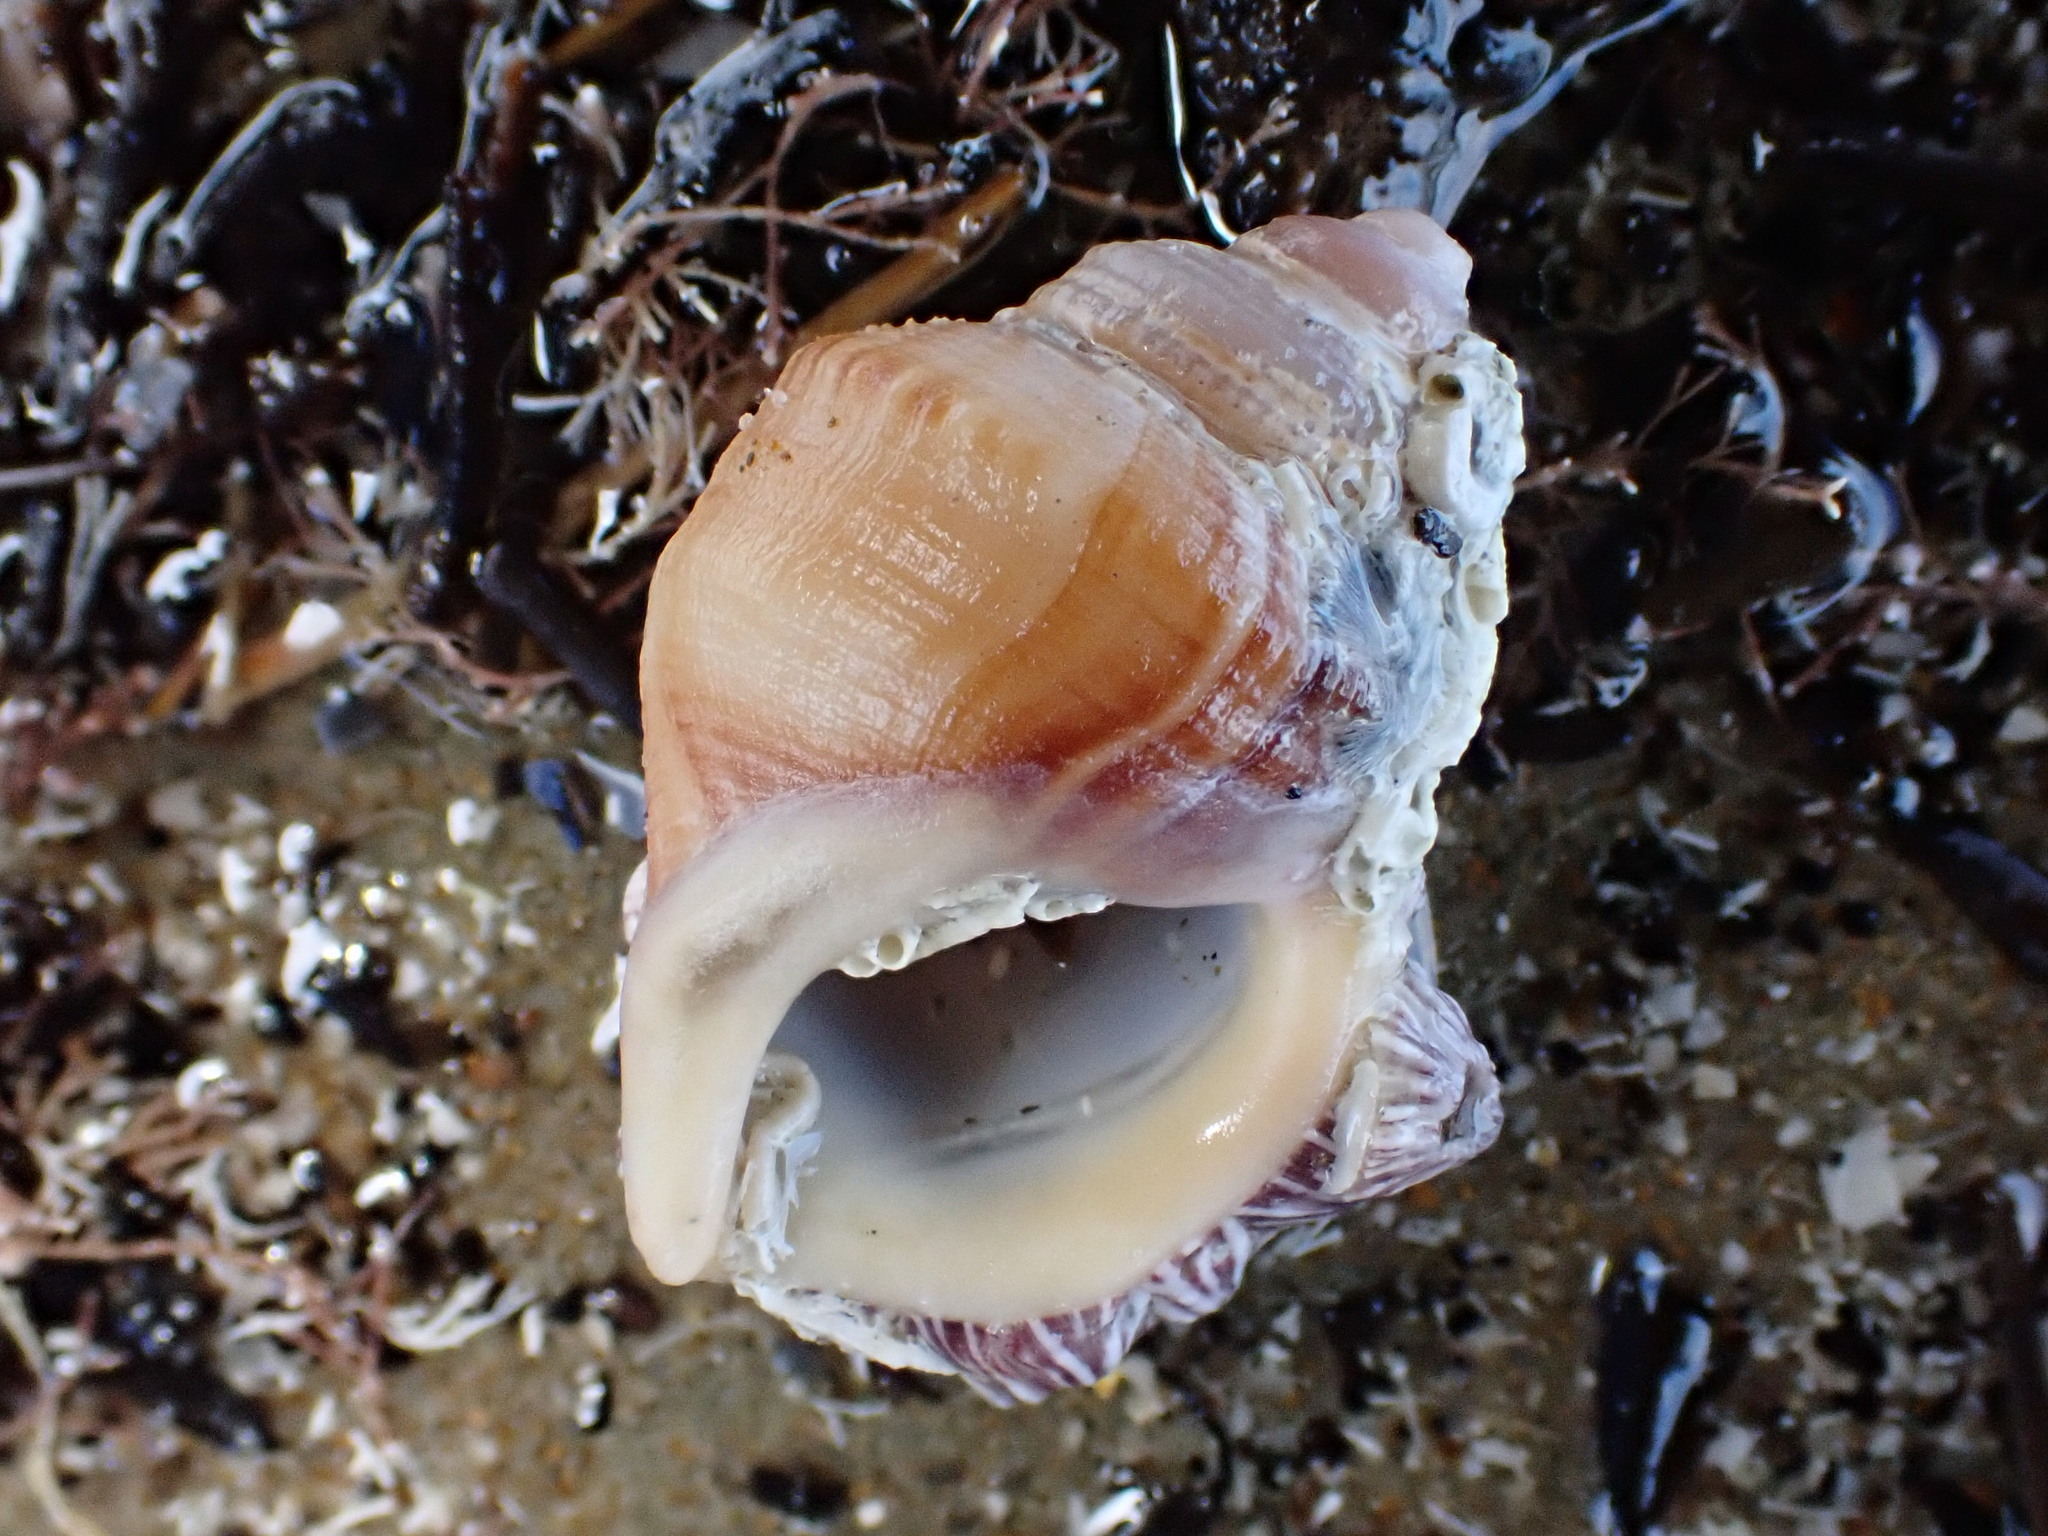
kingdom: Animalia
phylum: Mollusca
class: Gastropoda
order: Littorinimorpha
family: Struthiolariidae
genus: Pelicaria
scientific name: Pelicaria vermis
